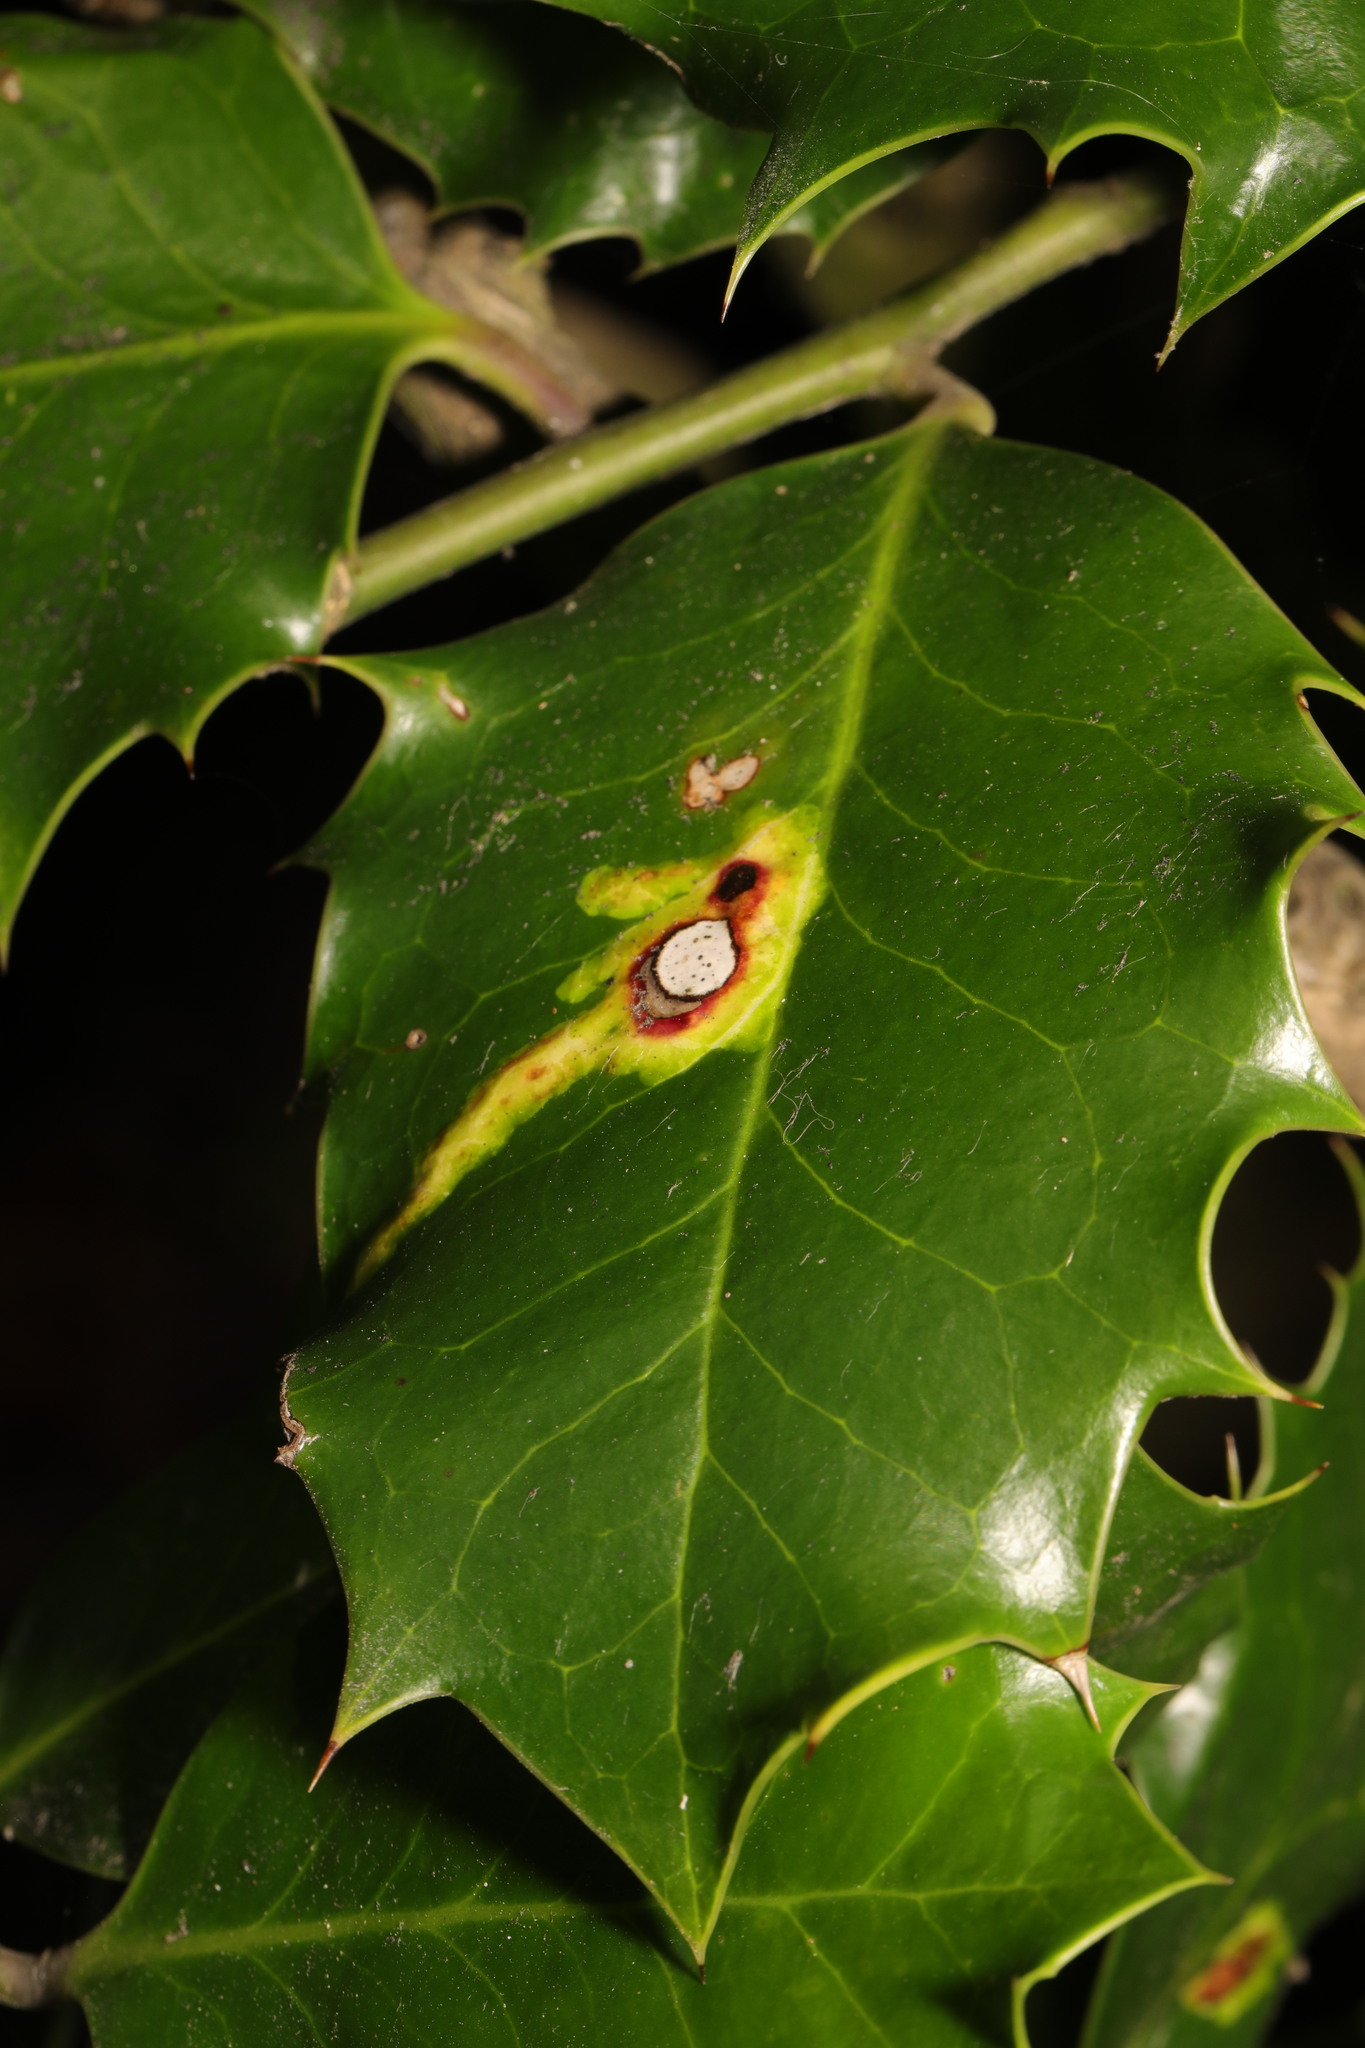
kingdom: Animalia
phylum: Arthropoda
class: Insecta
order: Diptera
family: Agromyzidae
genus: Phytomyza
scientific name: Phytomyza ilicis
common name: Holly leafminer
